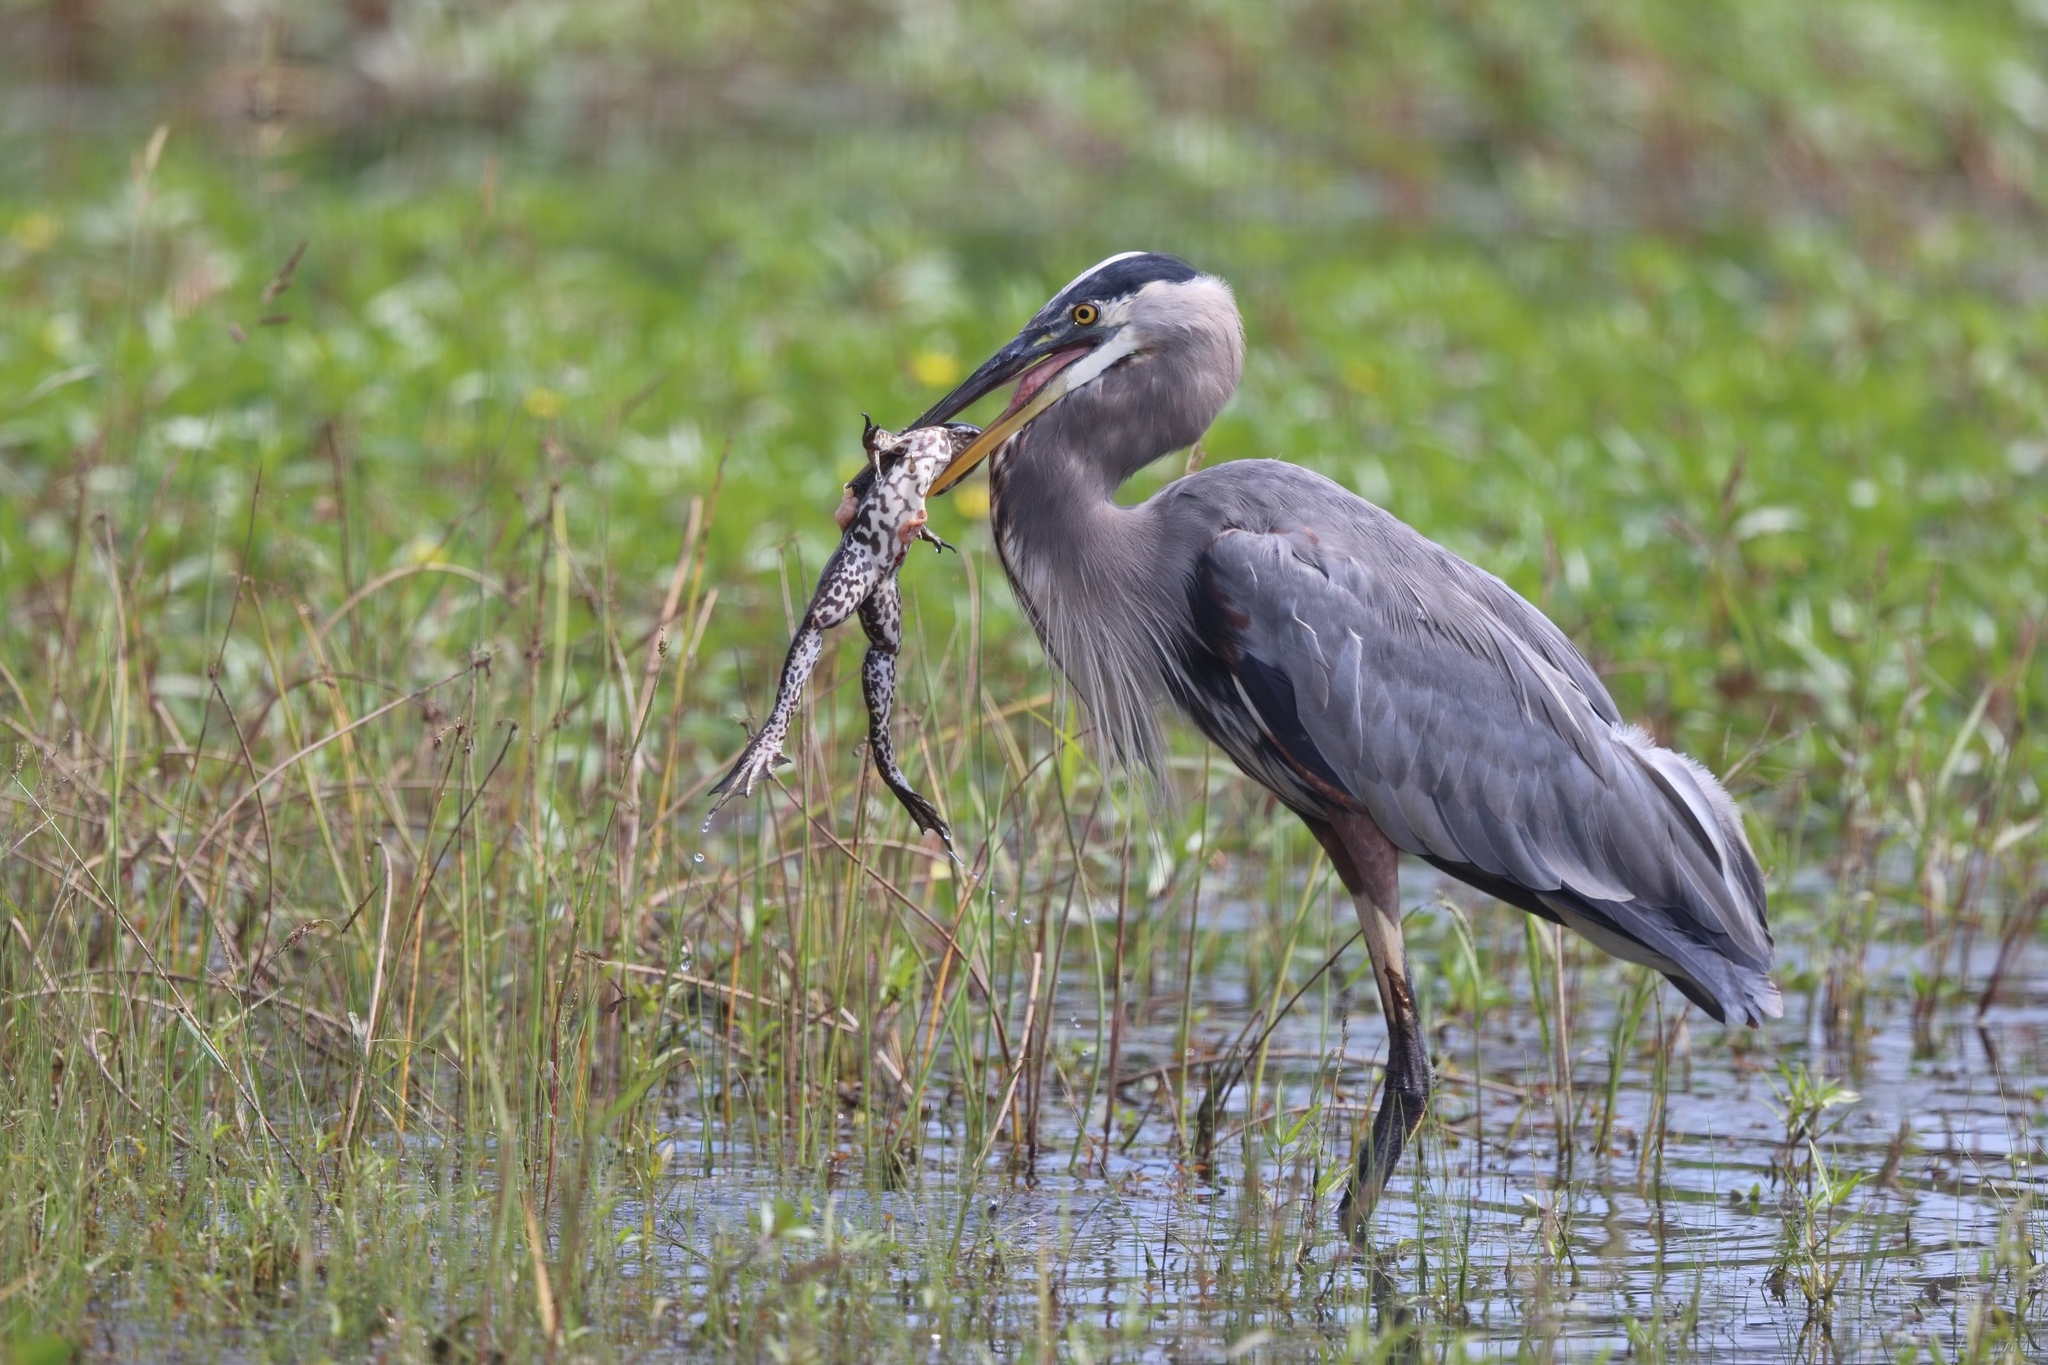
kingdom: Animalia
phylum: Chordata
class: Aves
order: Pelecaniformes
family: Ardeidae
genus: Ardea
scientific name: Ardea herodias
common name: Great blue heron
